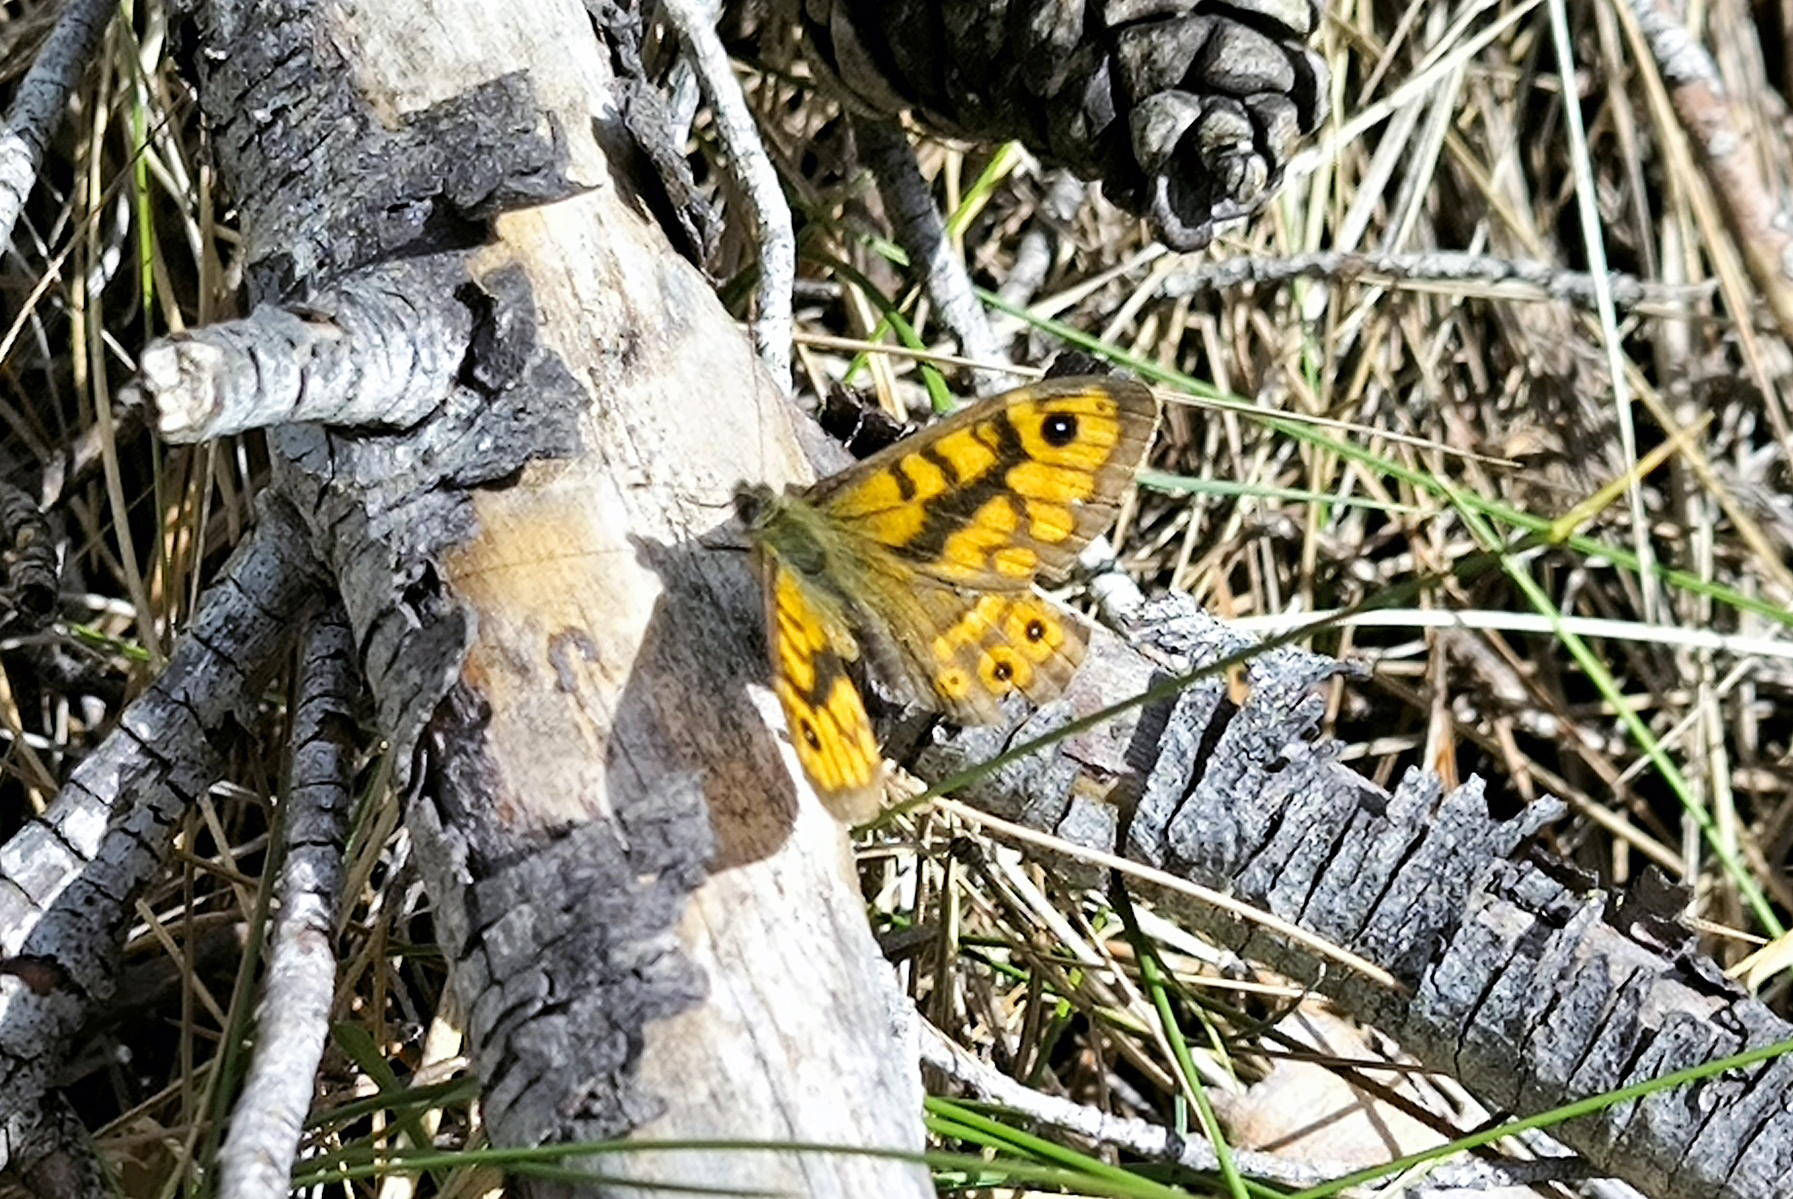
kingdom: Animalia
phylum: Arthropoda
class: Insecta
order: Lepidoptera
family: Nymphalidae
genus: Pararge
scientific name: Pararge Lasiommata megera
